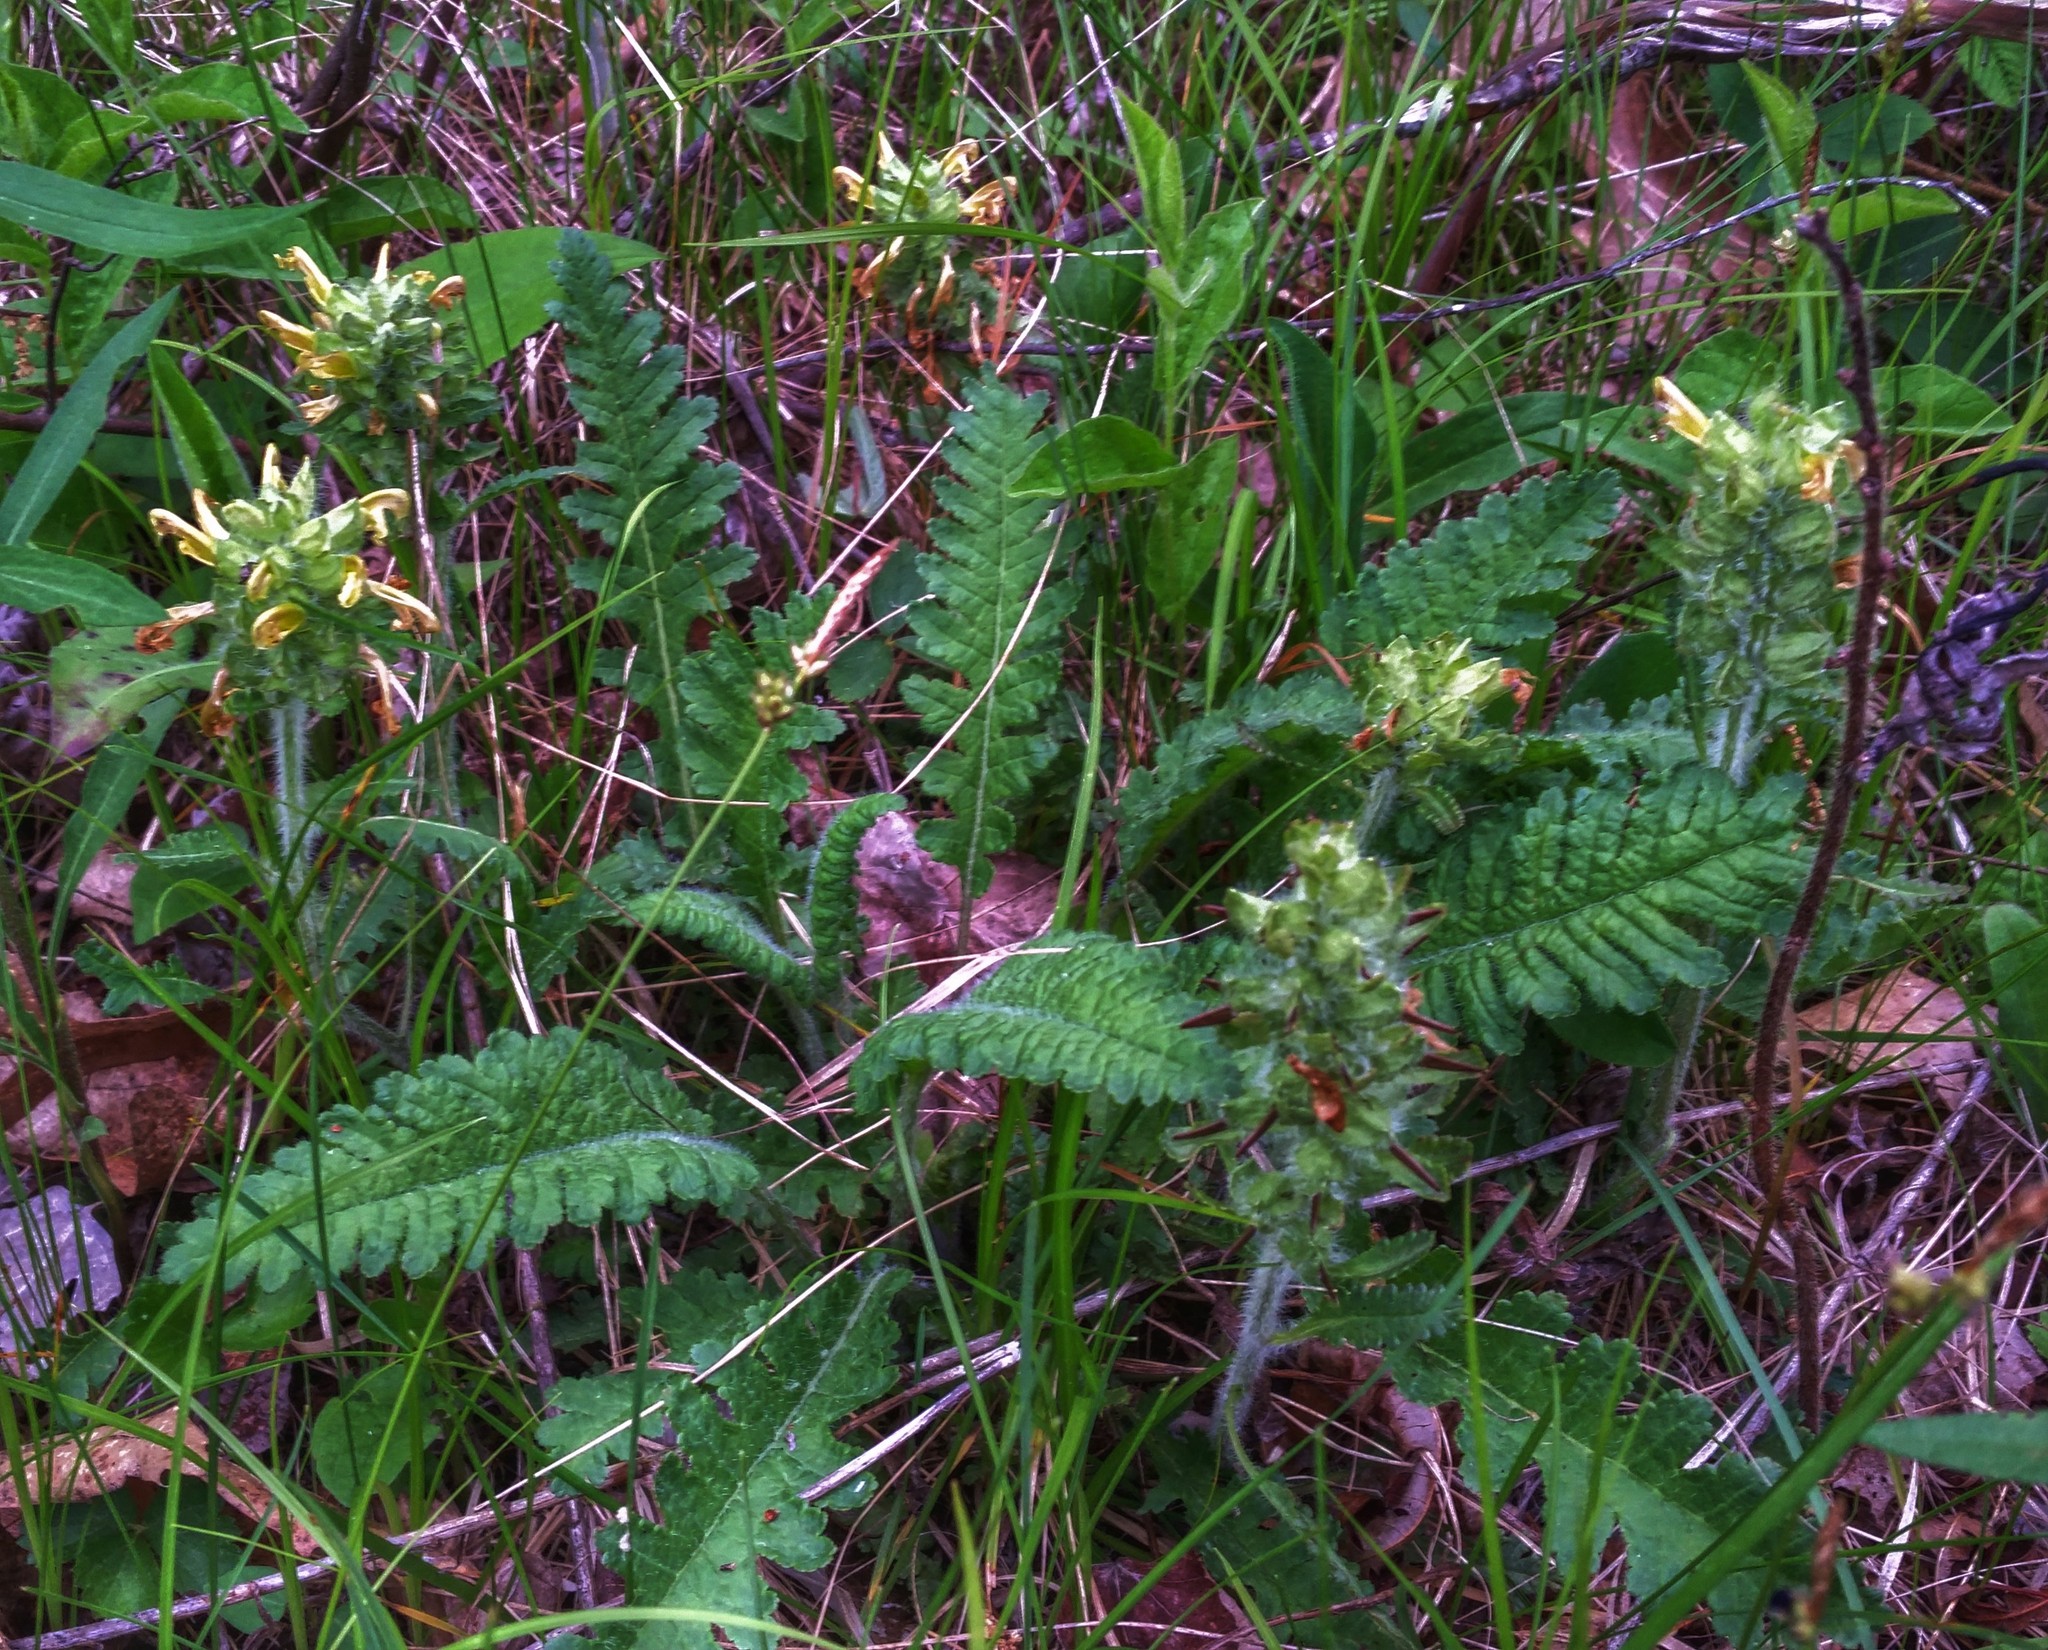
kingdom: Plantae
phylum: Tracheophyta
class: Magnoliopsida
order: Lamiales
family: Orobanchaceae
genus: Pedicularis
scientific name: Pedicularis canadensis
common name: Early lousewort
